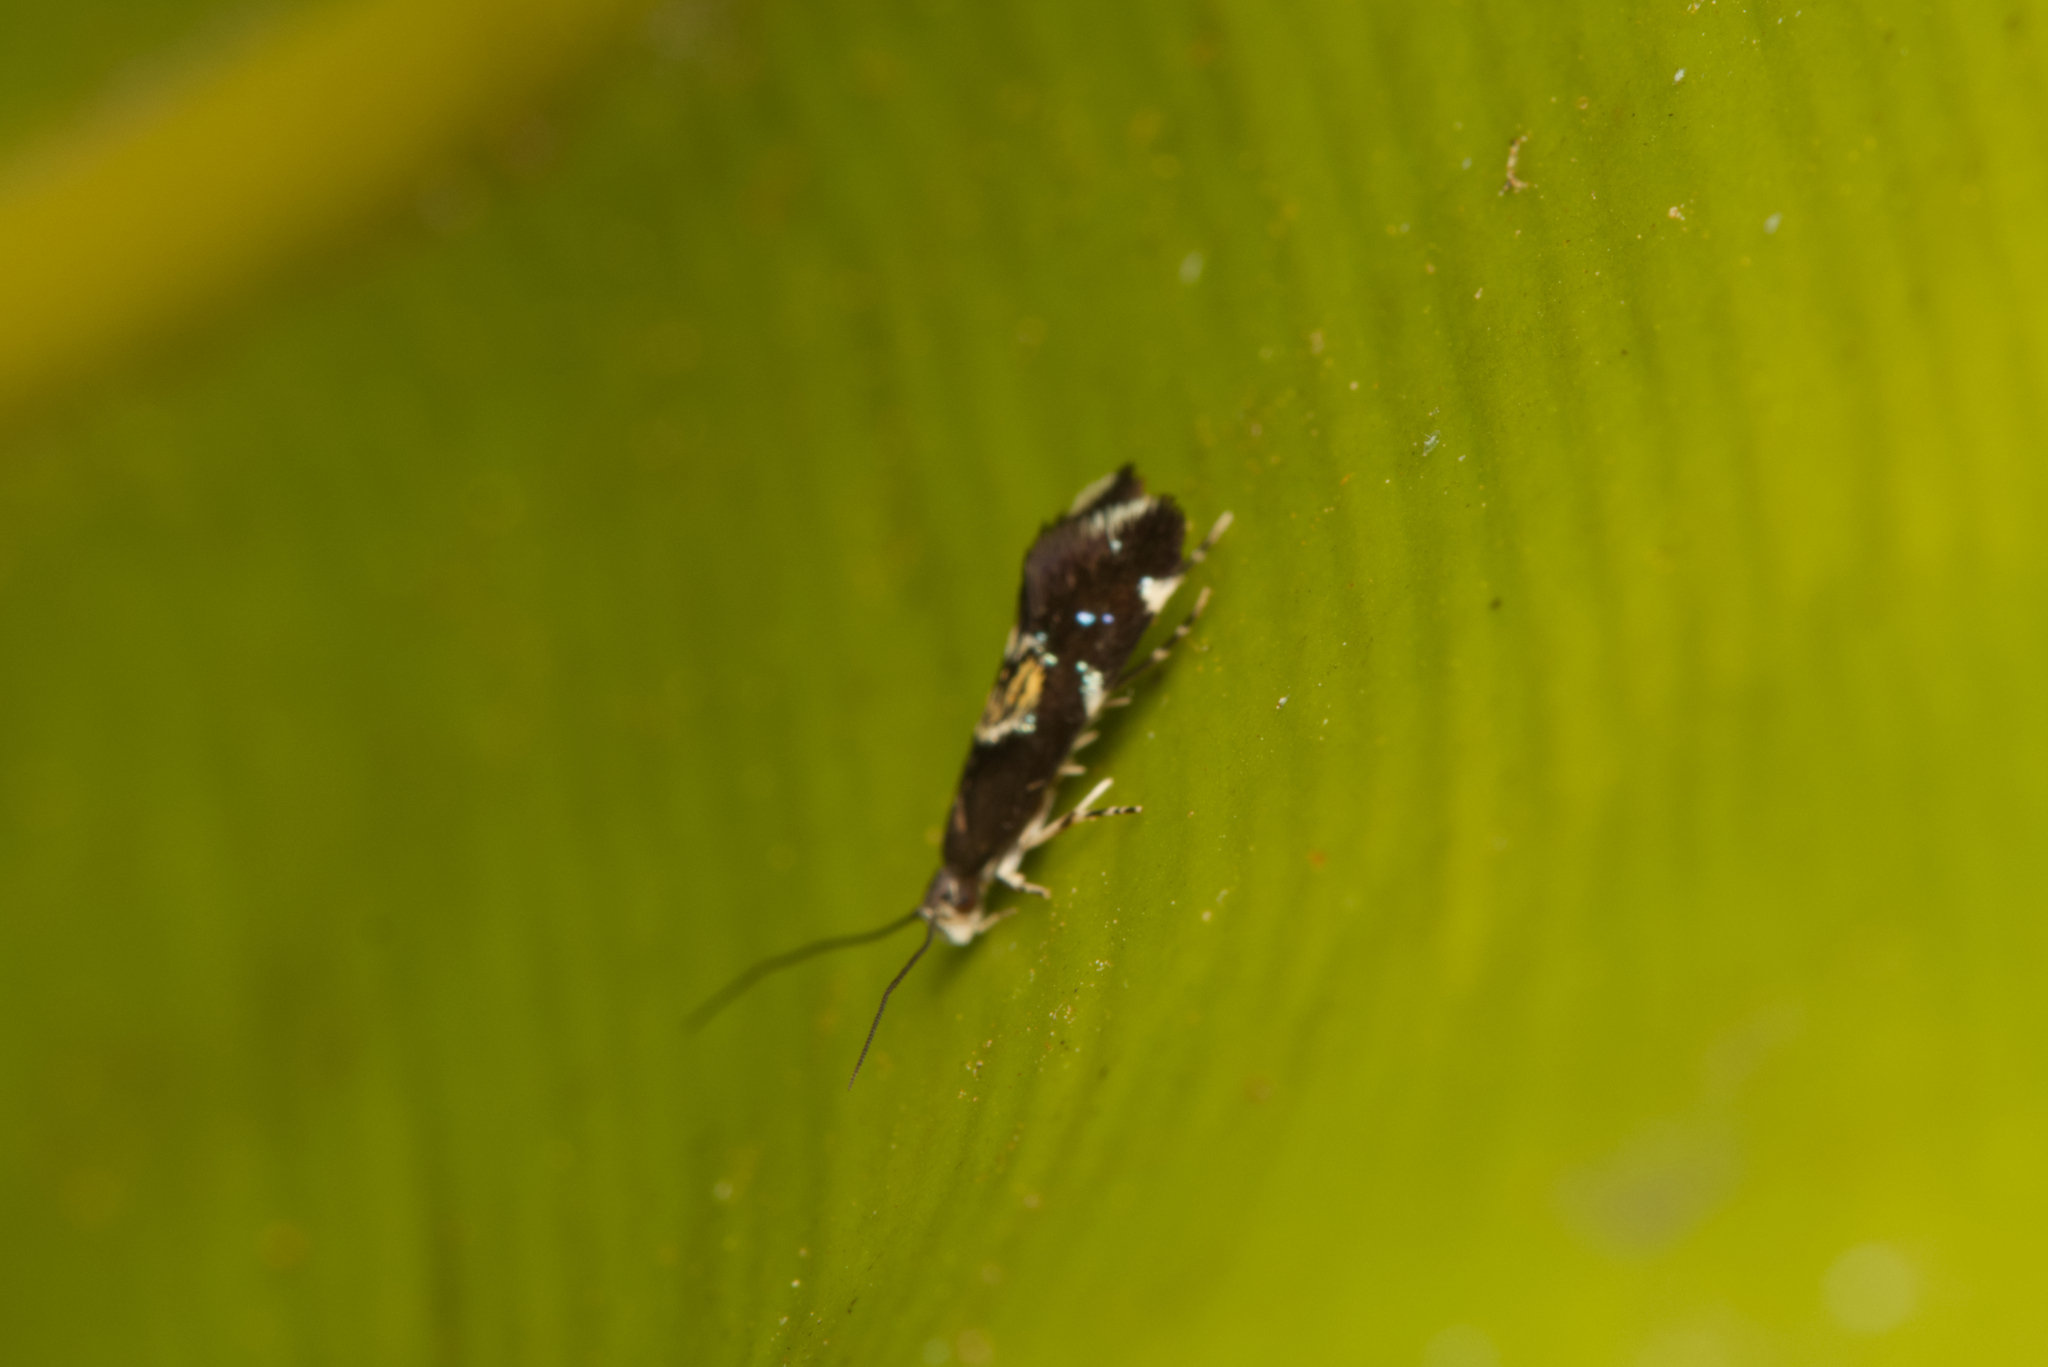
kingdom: Animalia
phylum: Arthropoda
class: Insecta
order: Lepidoptera
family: Tineidae
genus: Erechthias
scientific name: Erechthias orchestris
